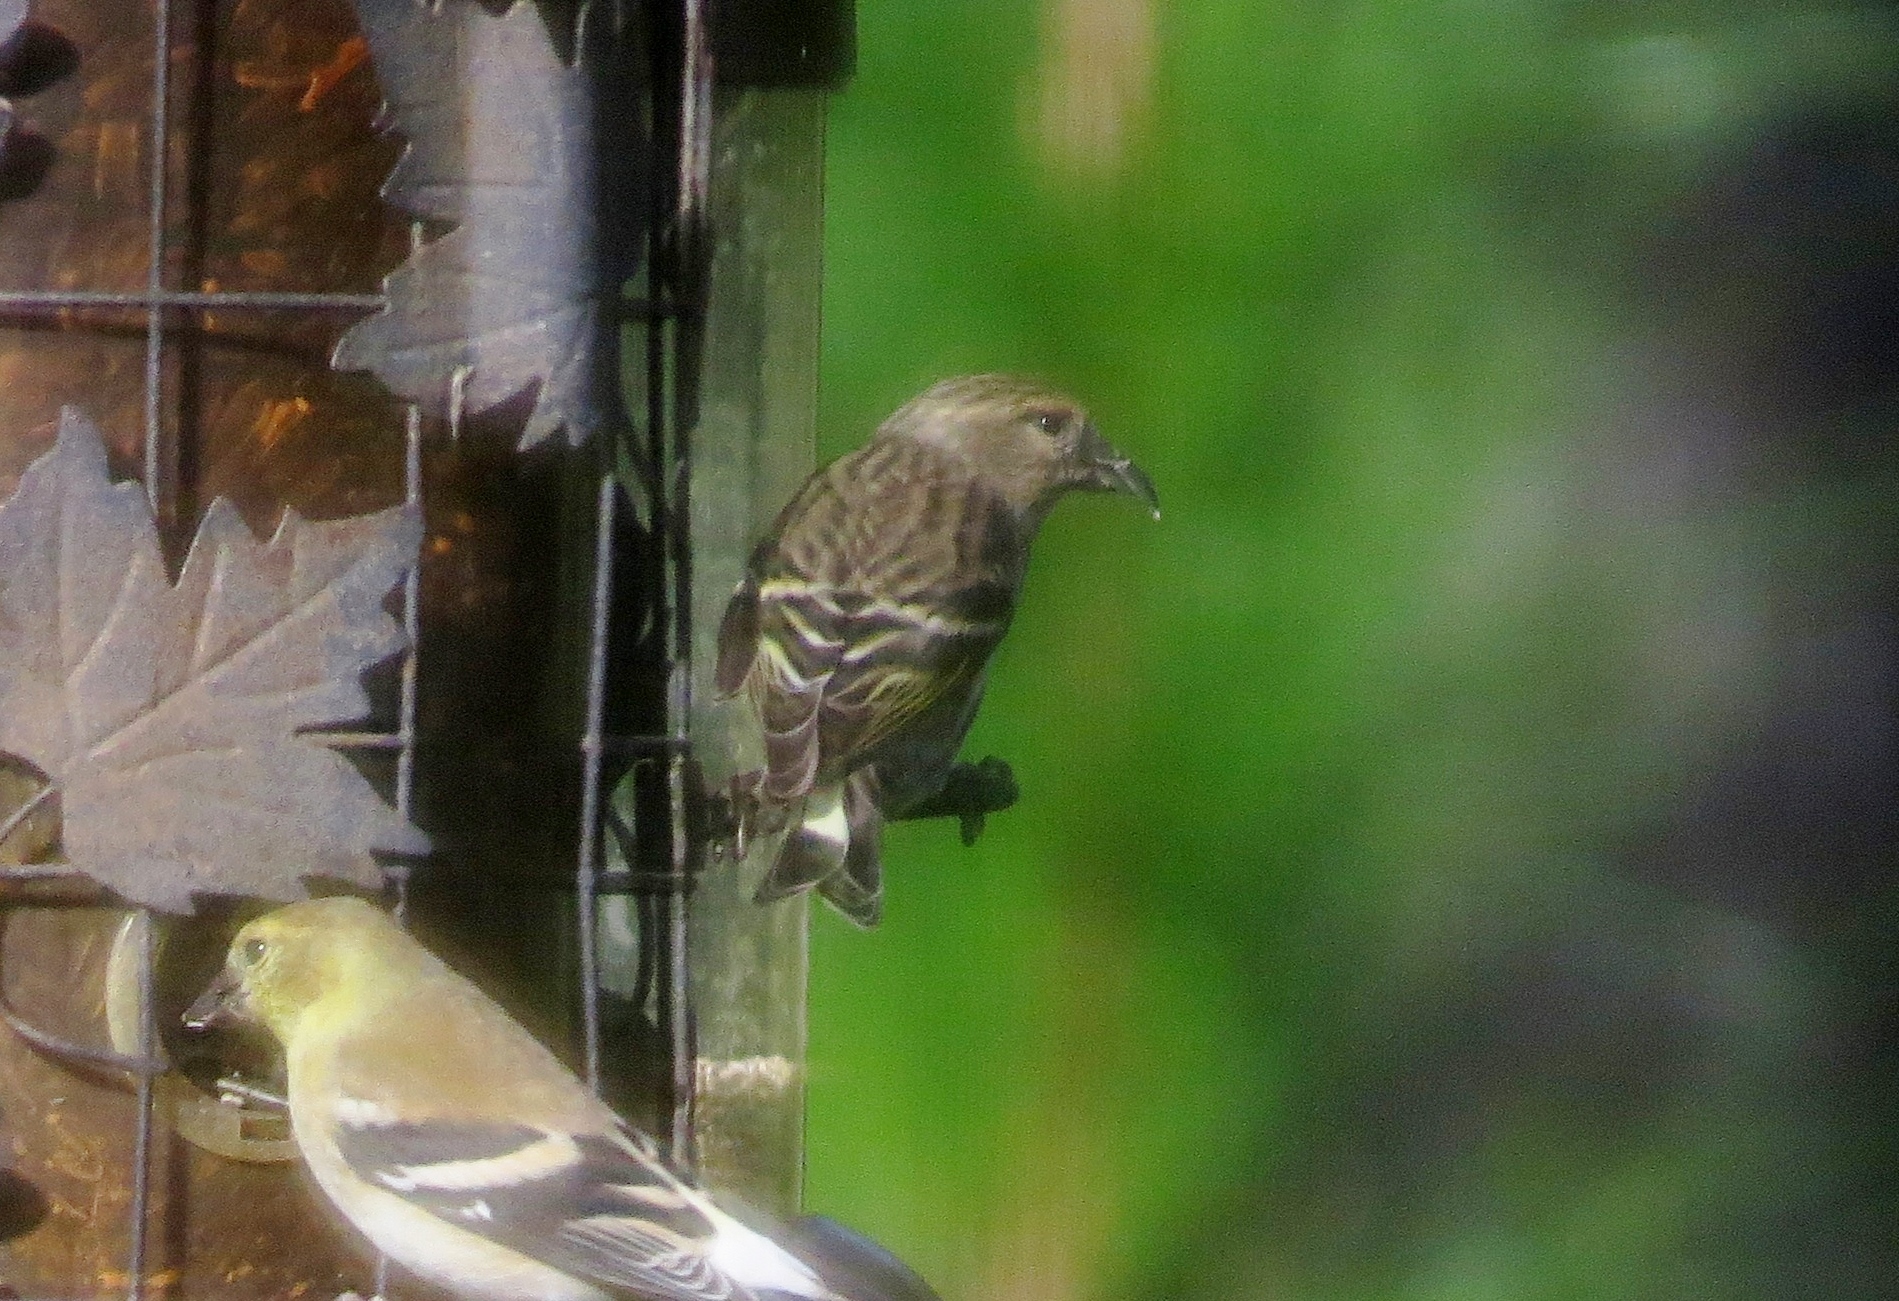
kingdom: Animalia
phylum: Chordata
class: Aves
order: Passeriformes
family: Fringillidae
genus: Spinus
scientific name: Spinus pinus
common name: Pine siskin
